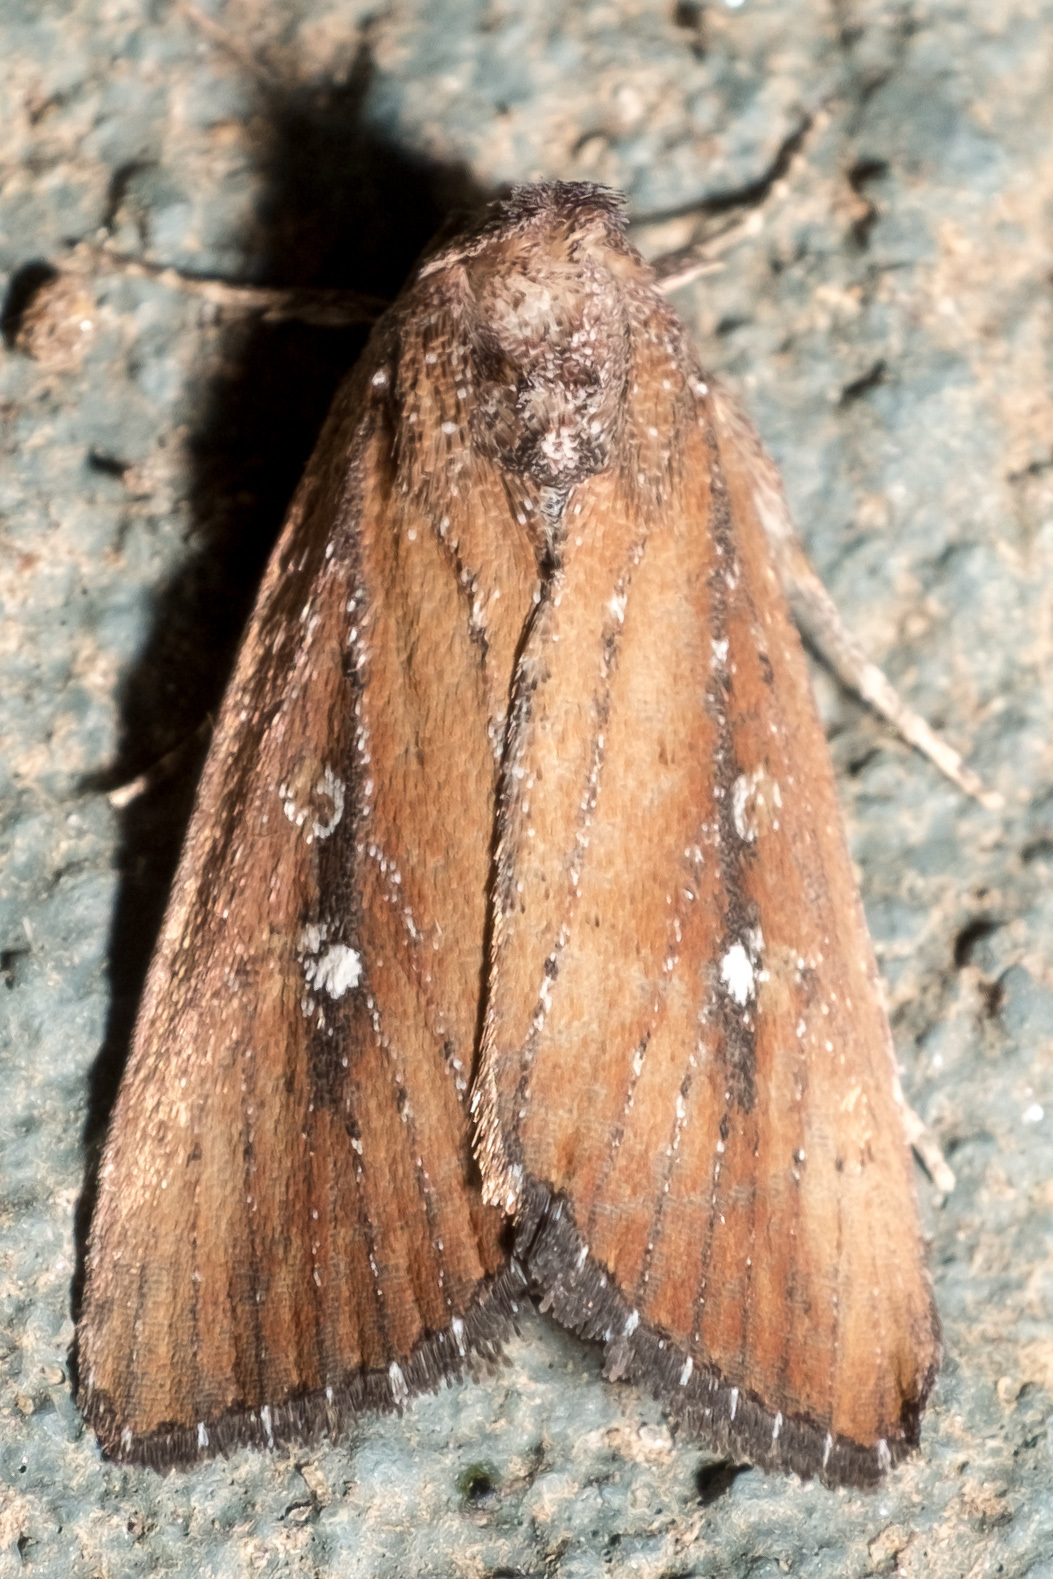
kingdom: Animalia
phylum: Arthropoda
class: Insecta
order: Lepidoptera
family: Noctuidae
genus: Condica
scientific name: Condica videns
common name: White-dotted groundling
